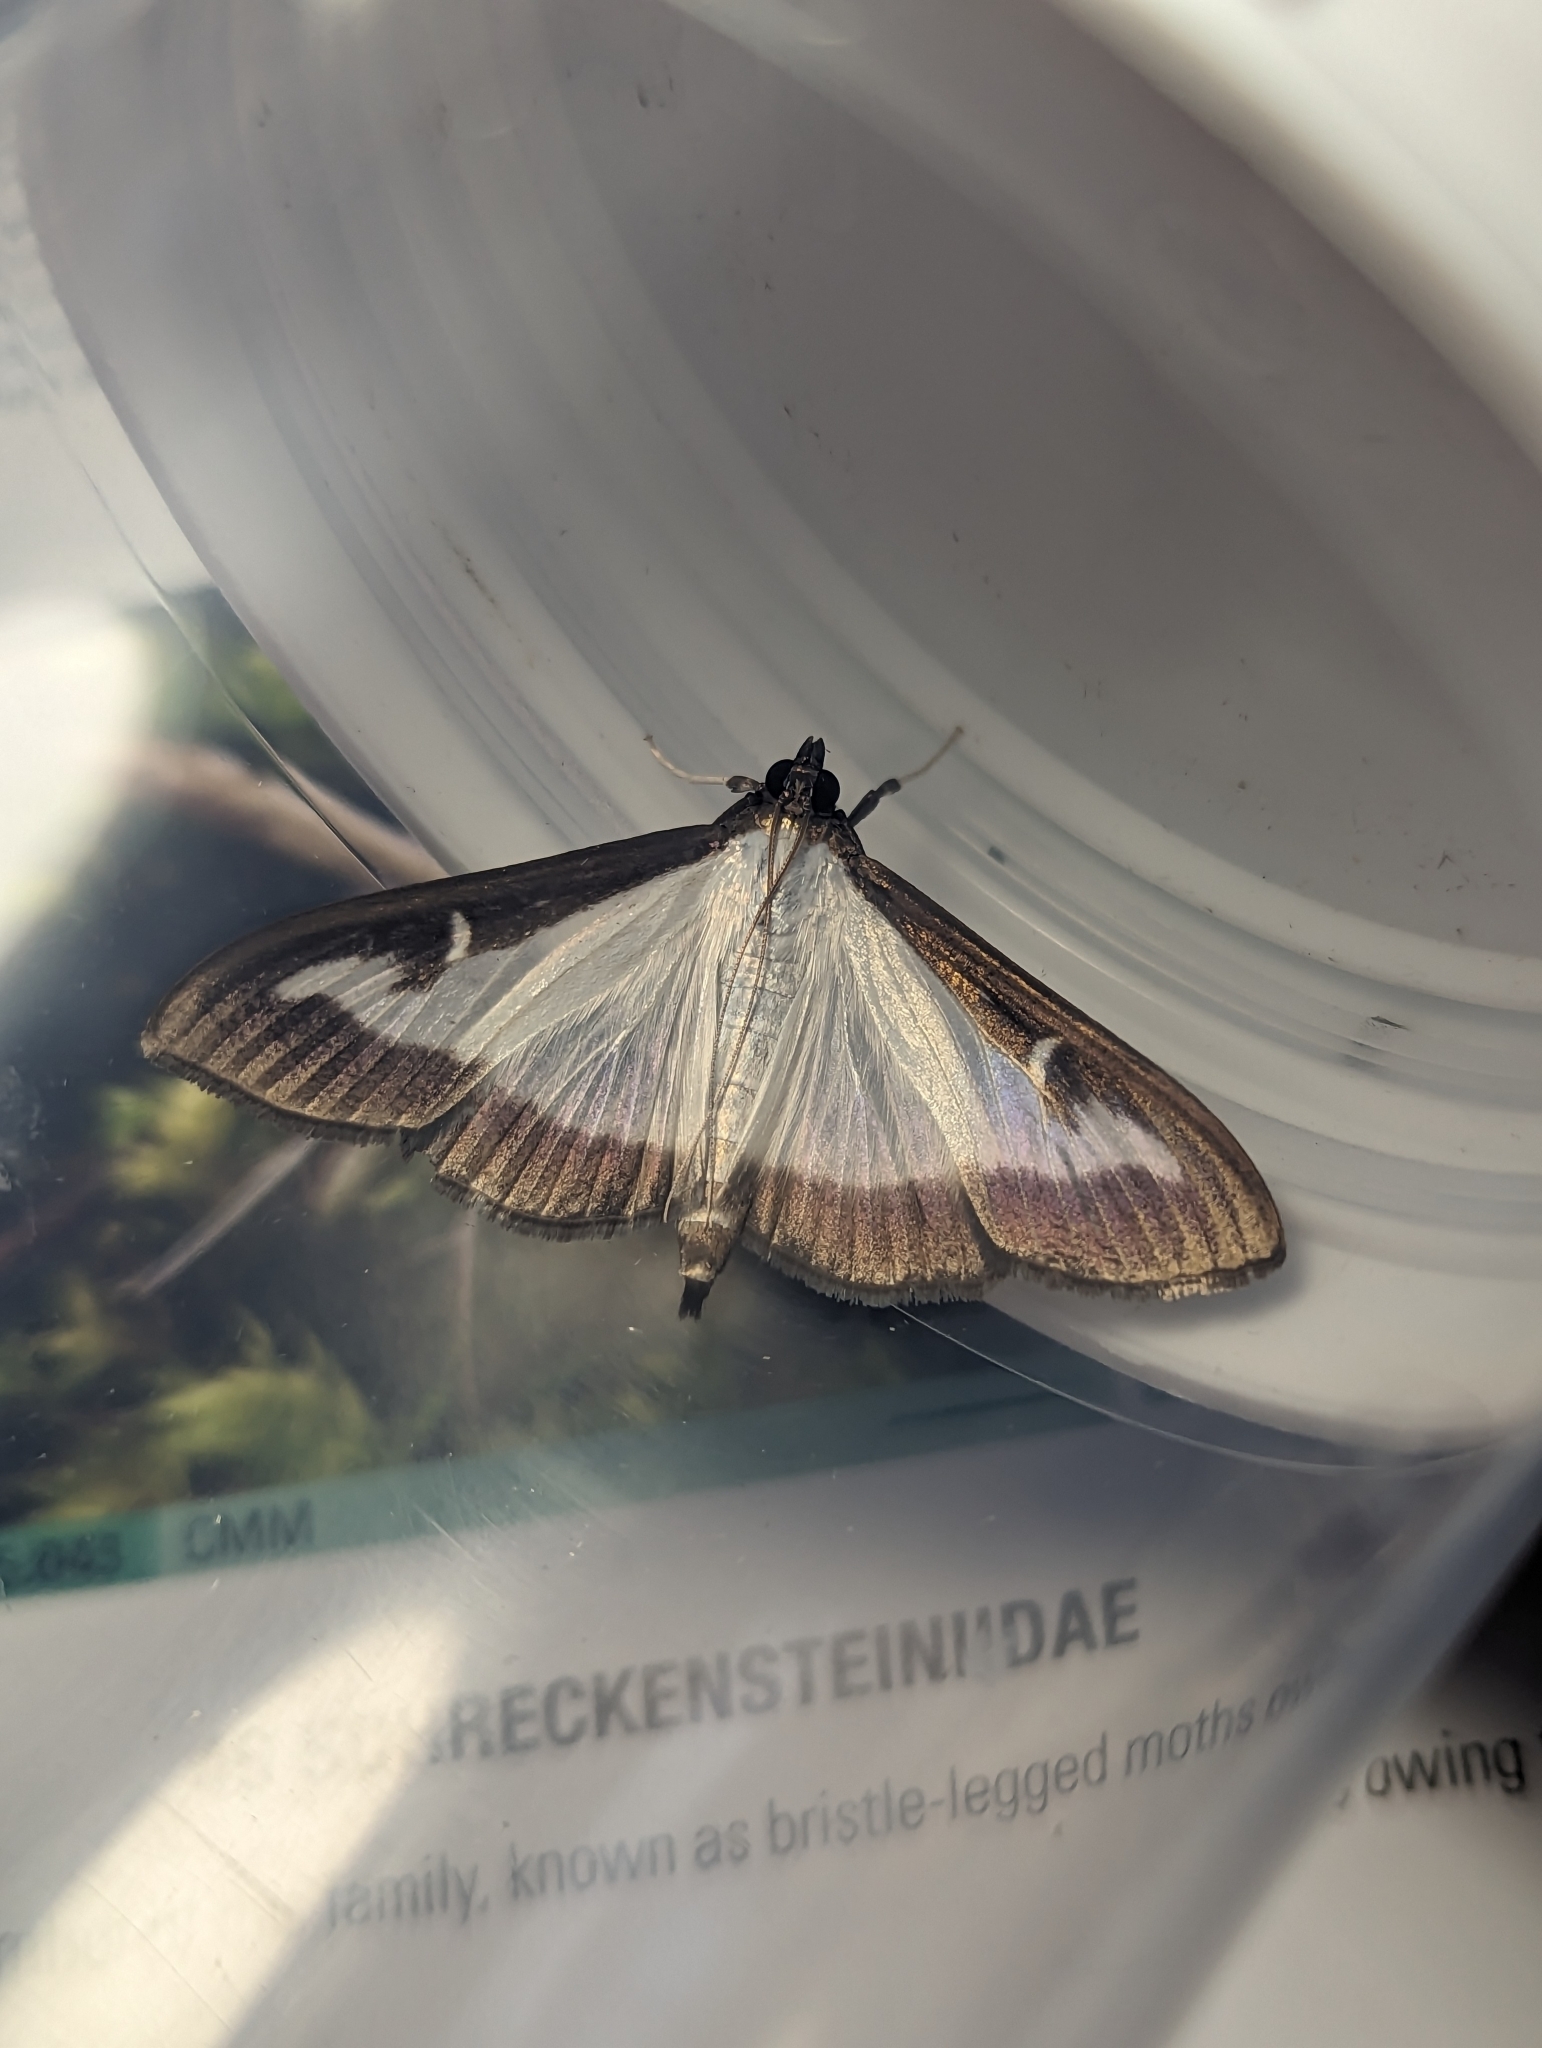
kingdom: Animalia
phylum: Arthropoda
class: Insecta
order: Lepidoptera
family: Crambidae
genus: Cydalima
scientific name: Cydalima perspectalis
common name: Box tree moth
